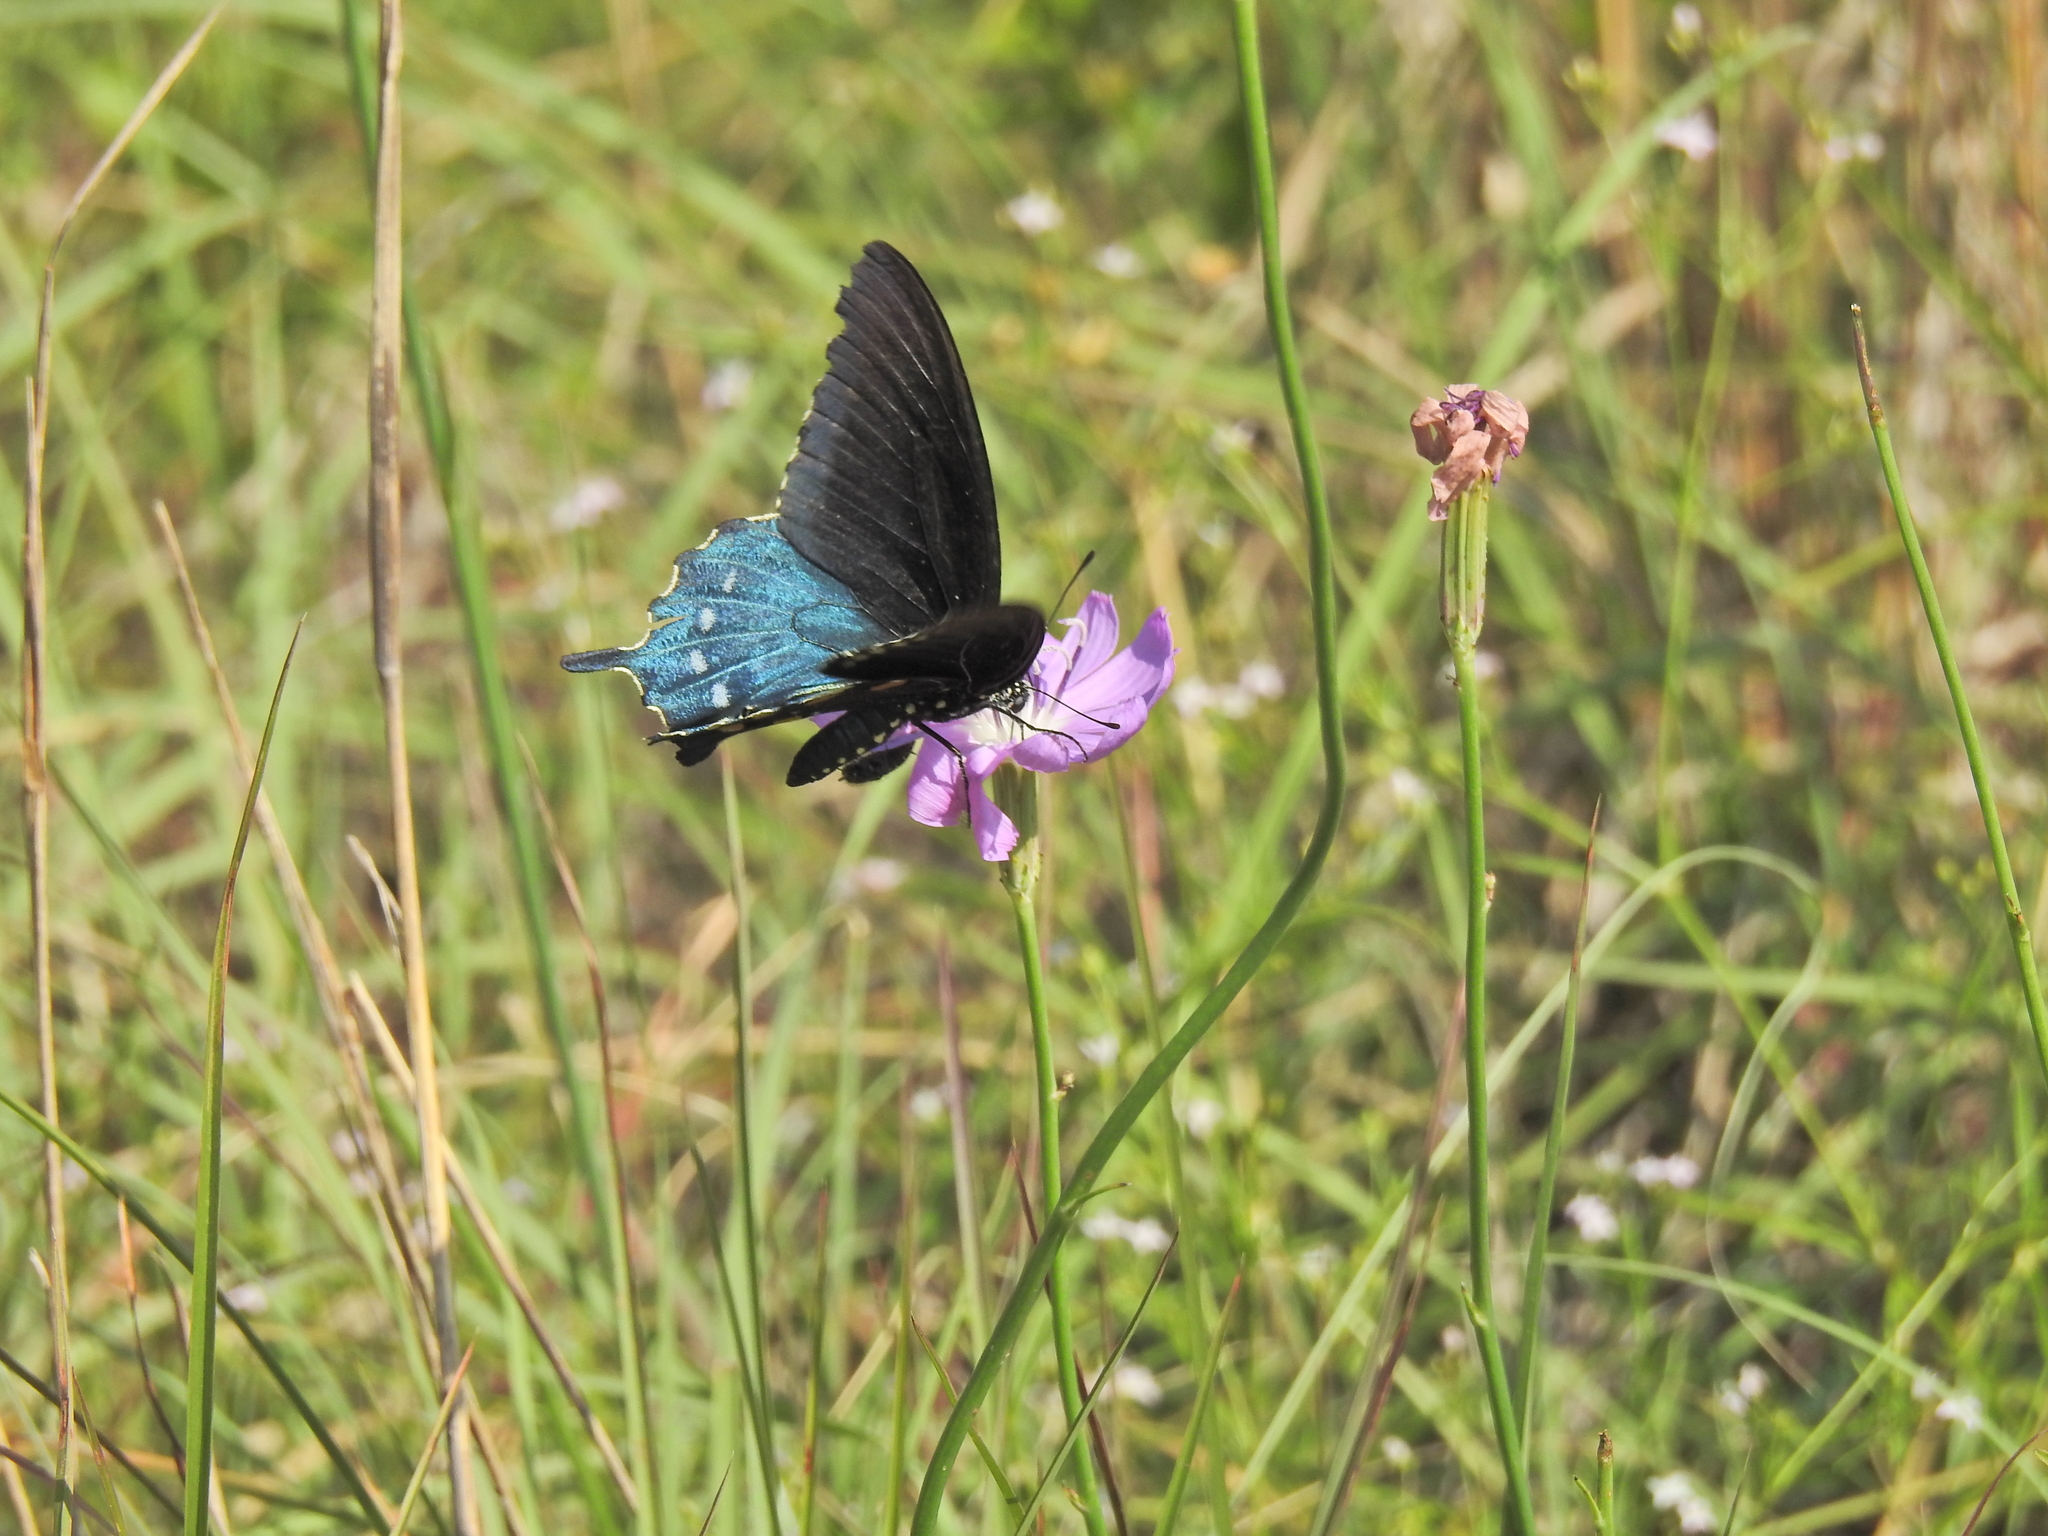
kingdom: Animalia
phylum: Arthropoda
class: Insecta
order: Lepidoptera
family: Papilionidae
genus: Battus
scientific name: Battus philenor
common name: Pipevine swallowtail
